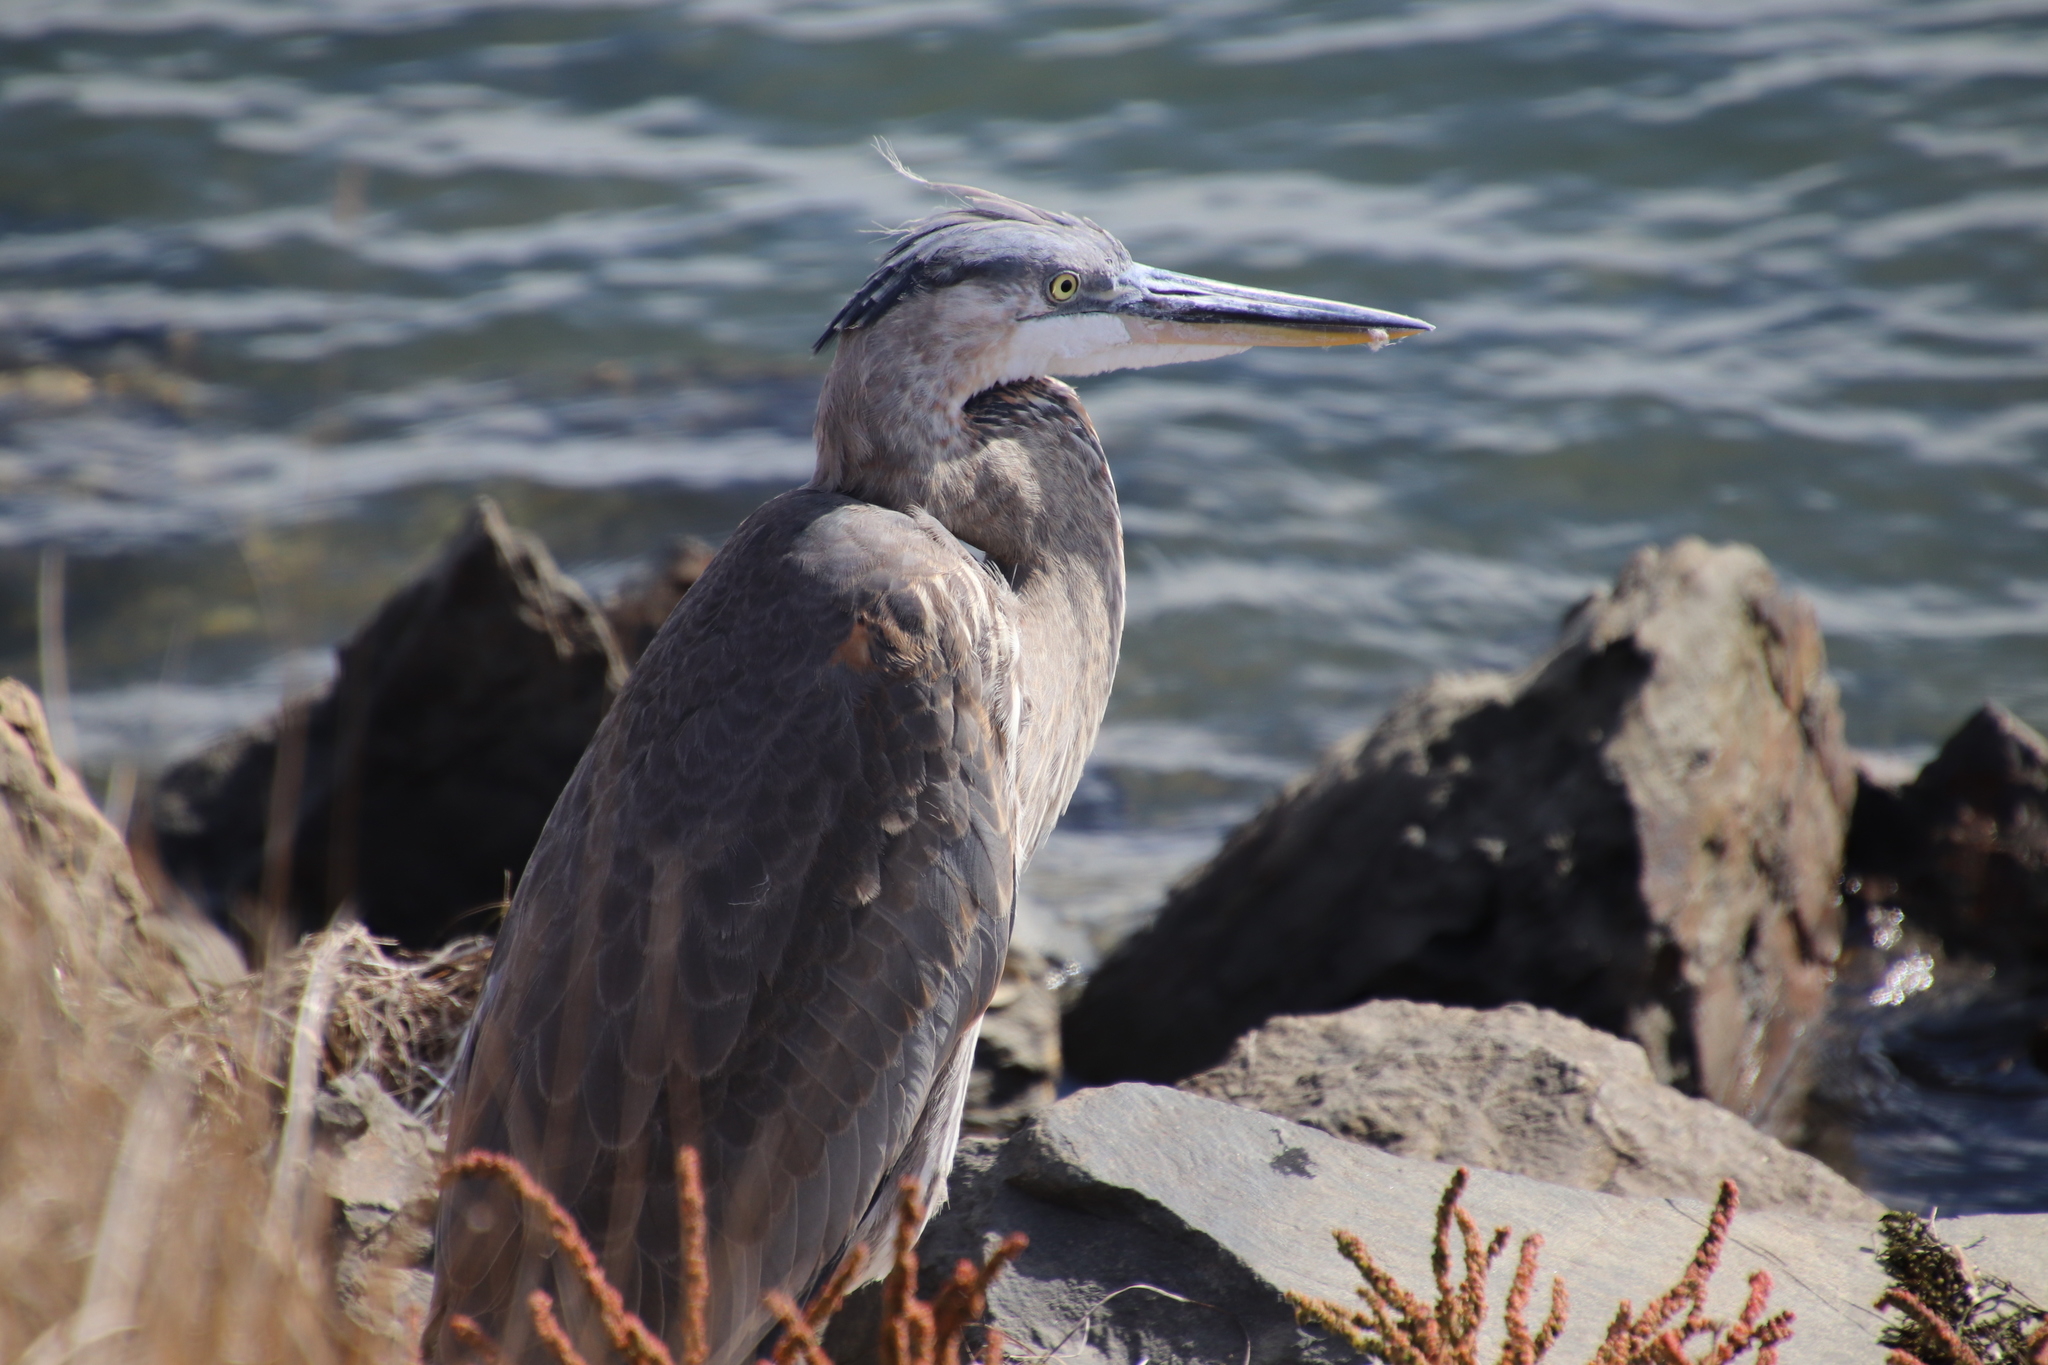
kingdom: Animalia
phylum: Chordata
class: Aves
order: Pelecaniformes
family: Ardeidae
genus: Ardea
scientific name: Ardea herodias
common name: Great blue heron
